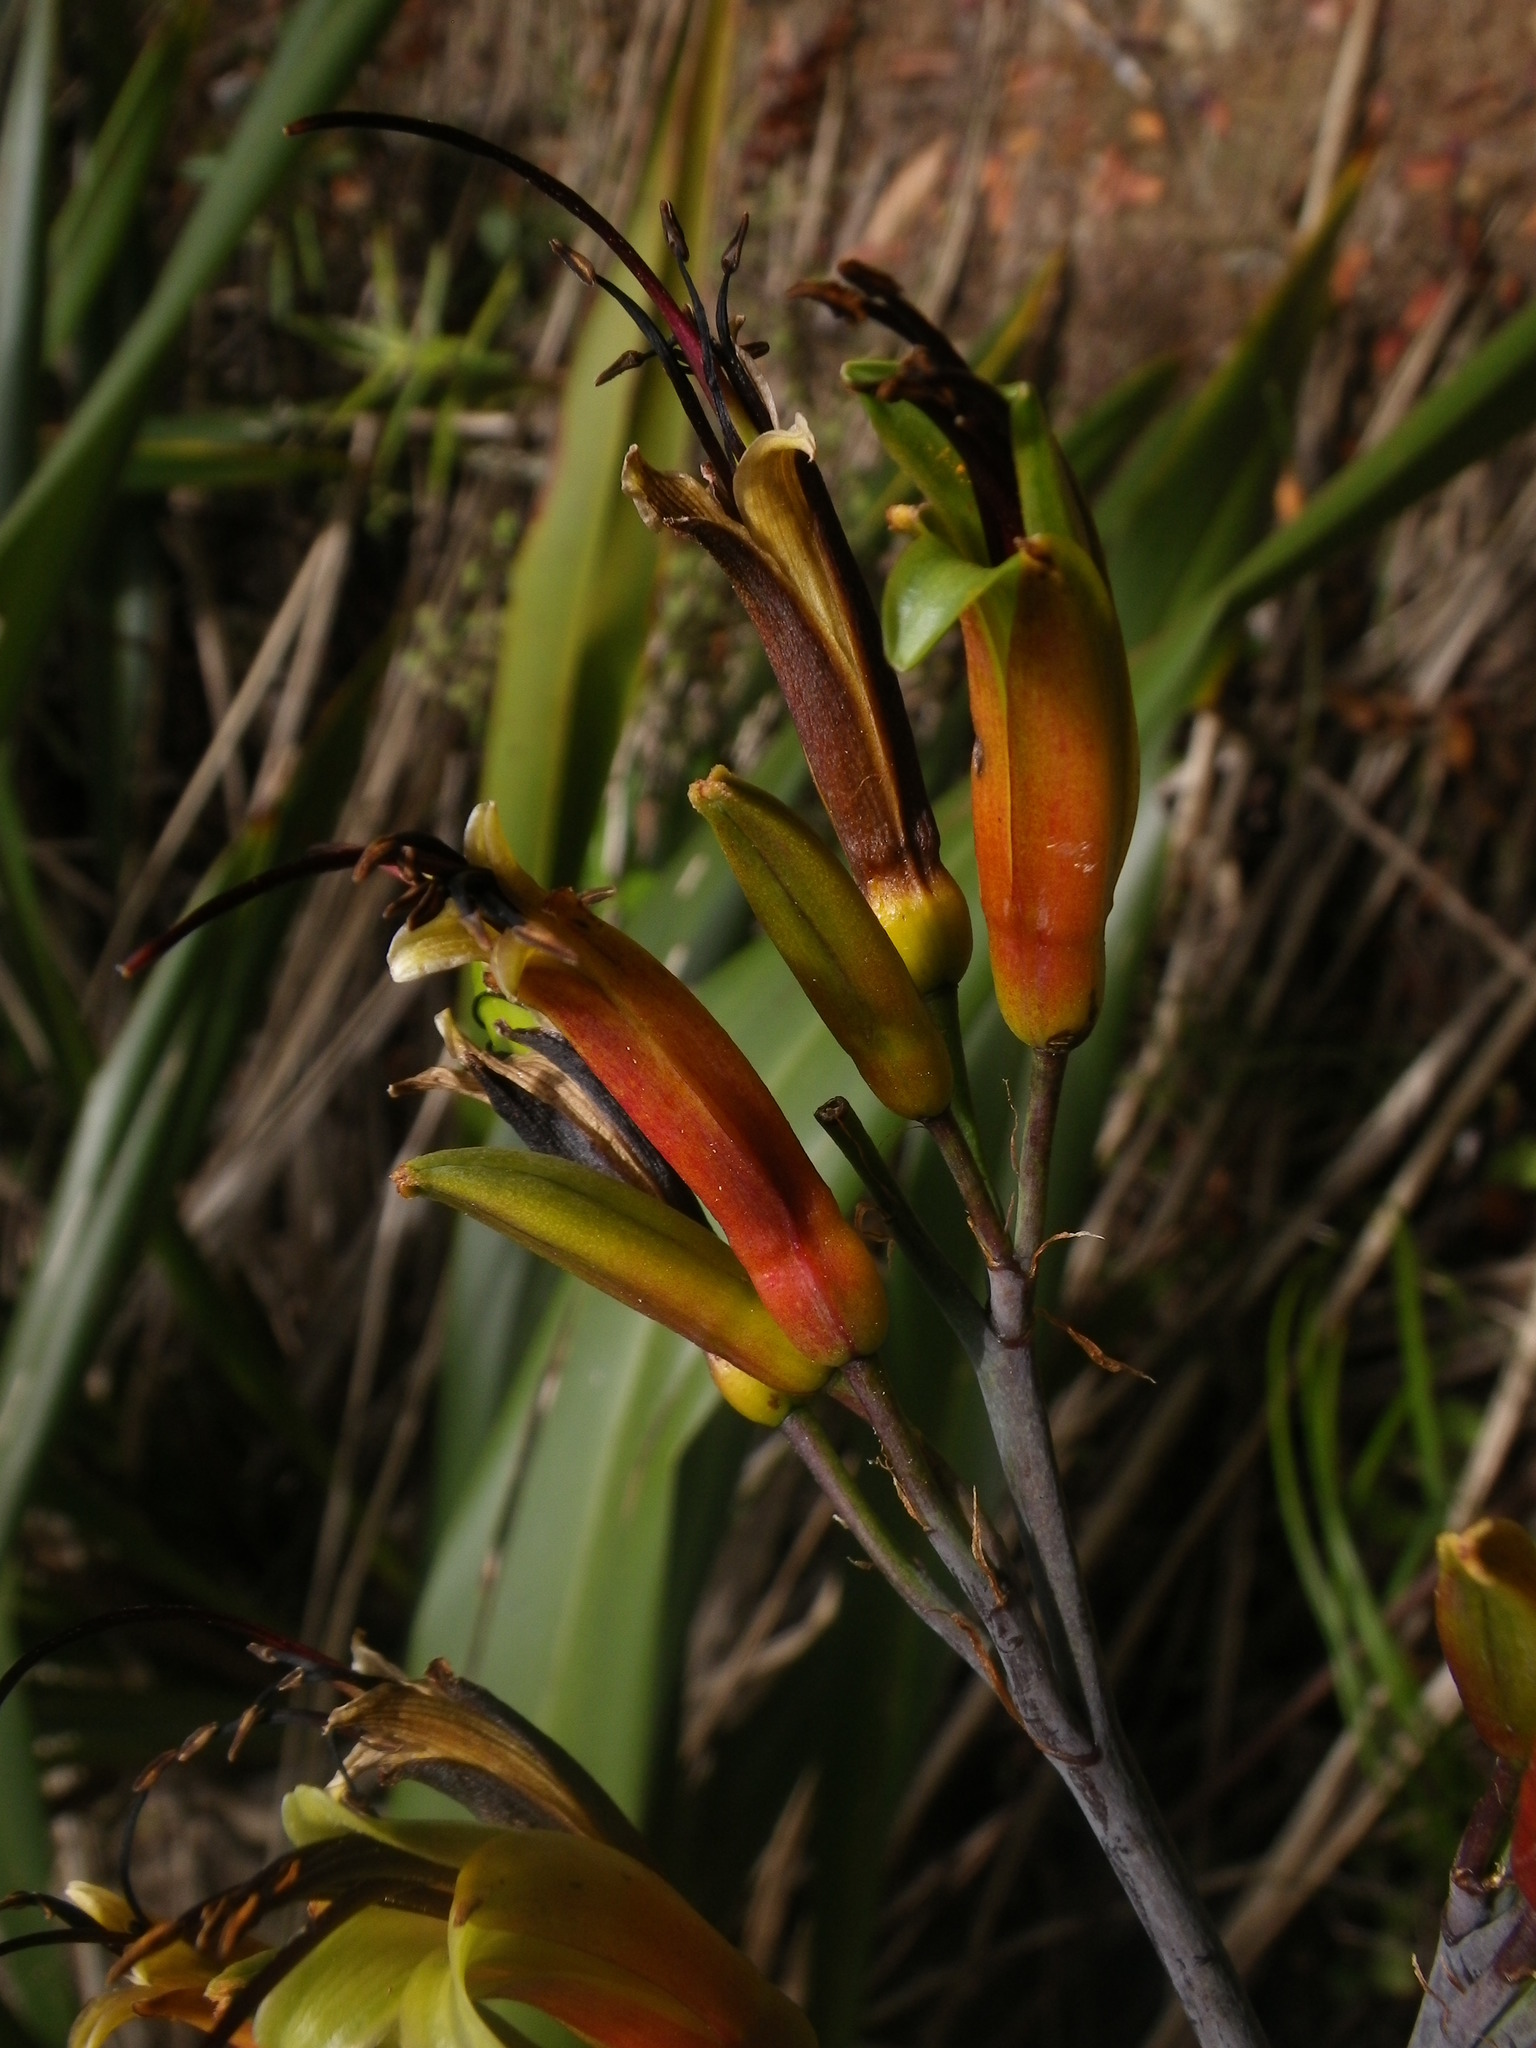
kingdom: Plantae
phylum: Tracheophyta
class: Liliopsida
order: Asparagales
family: Asphodelaceae
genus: Phormium
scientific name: Phormium colensoi
